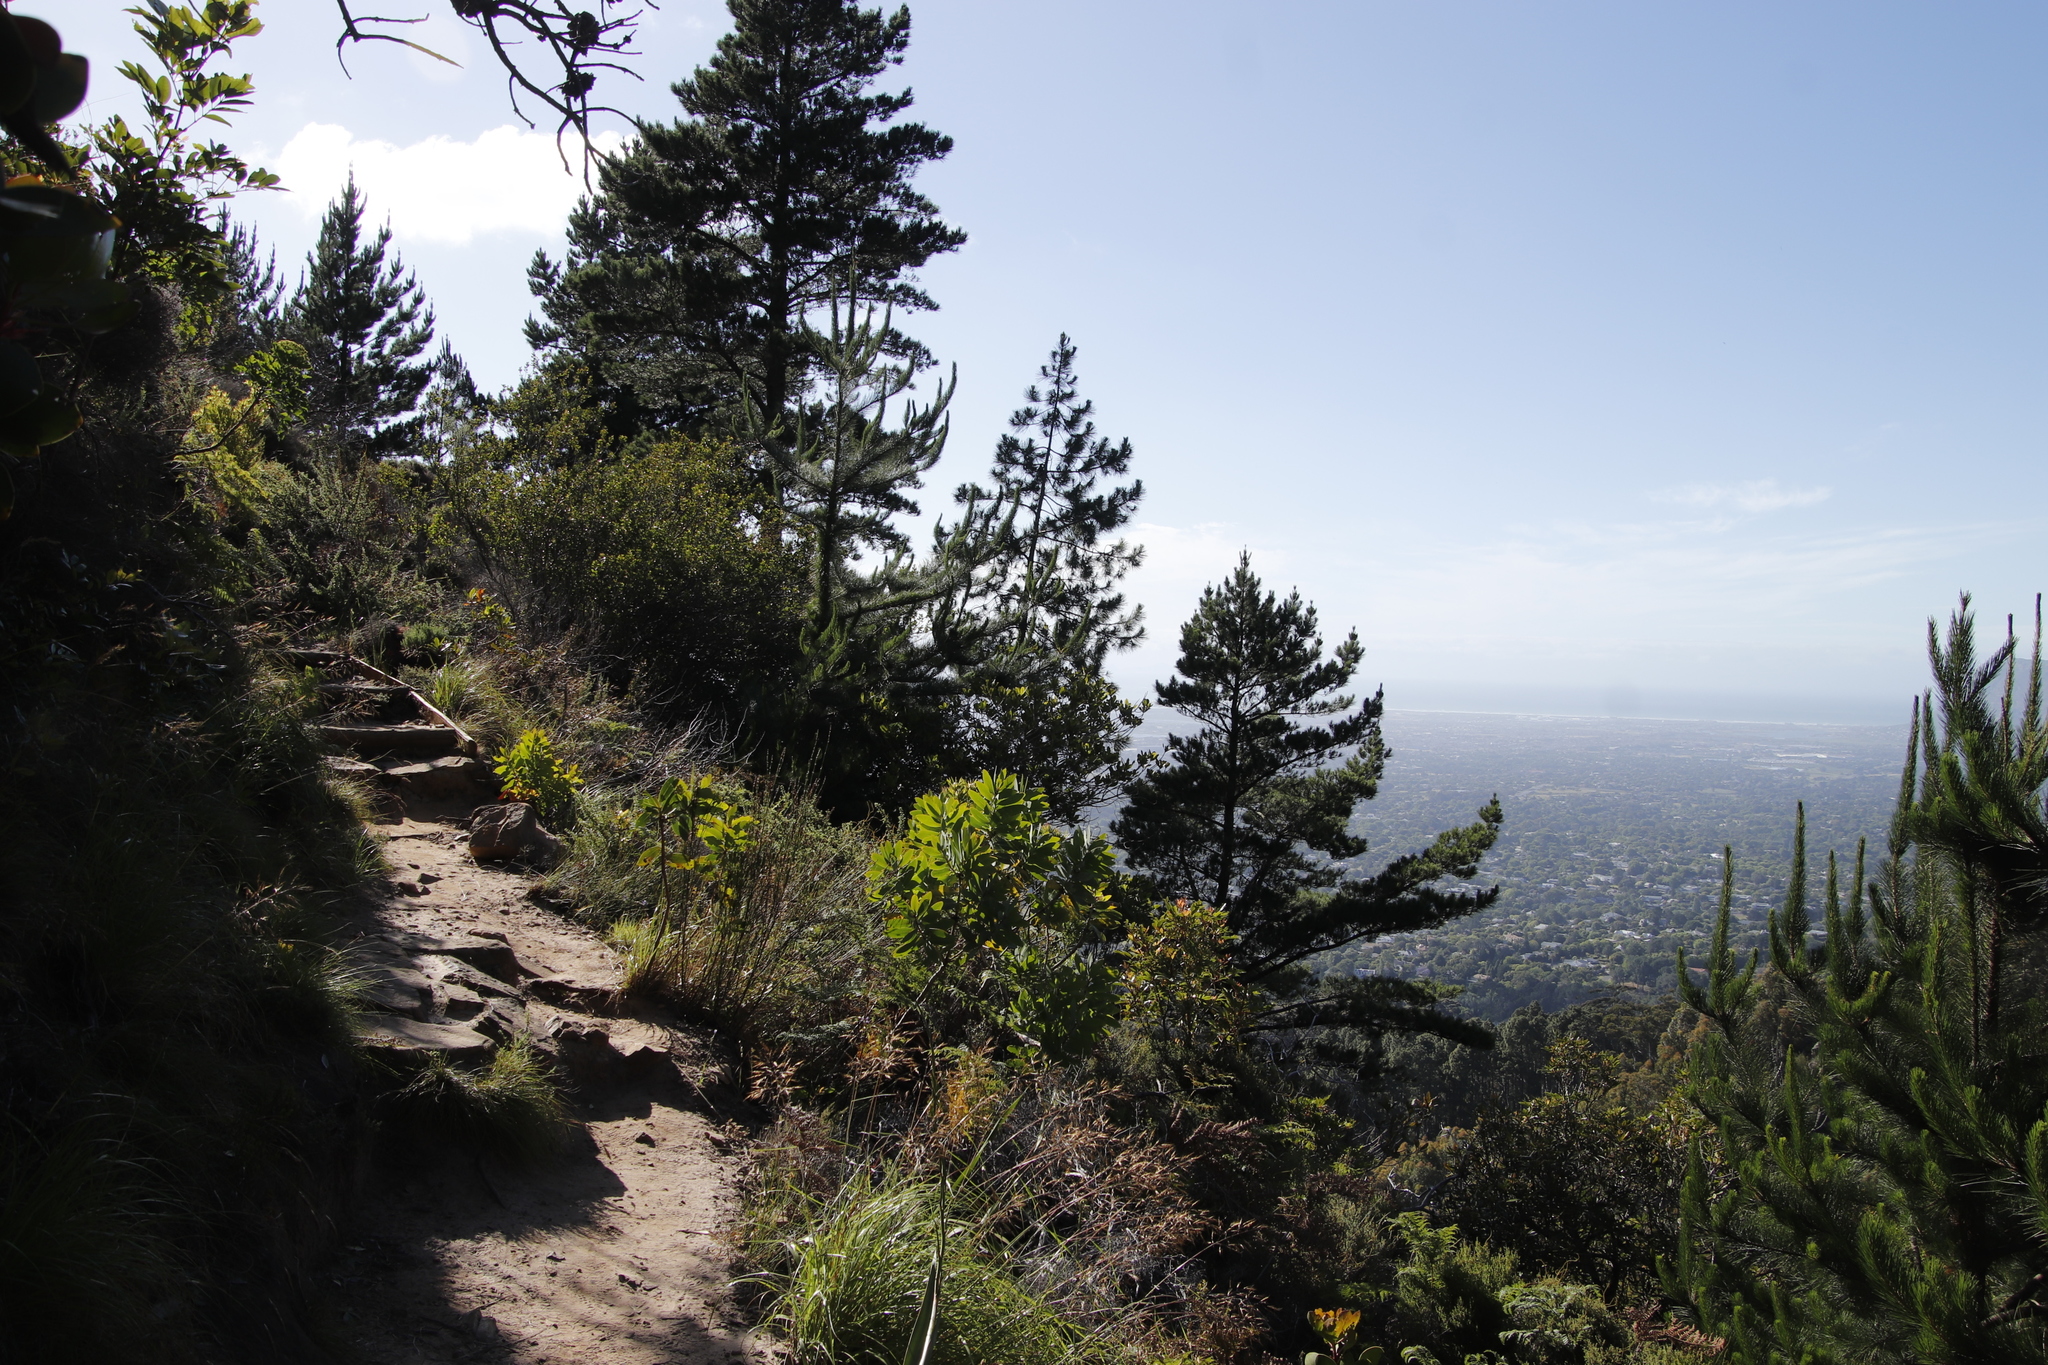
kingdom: Plantae
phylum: Tracheophyta
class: Magnoliopsida
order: Proteales
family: Proteaceae
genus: Protea
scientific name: Protea lepidocarpodendron
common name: Black-bearded protea
